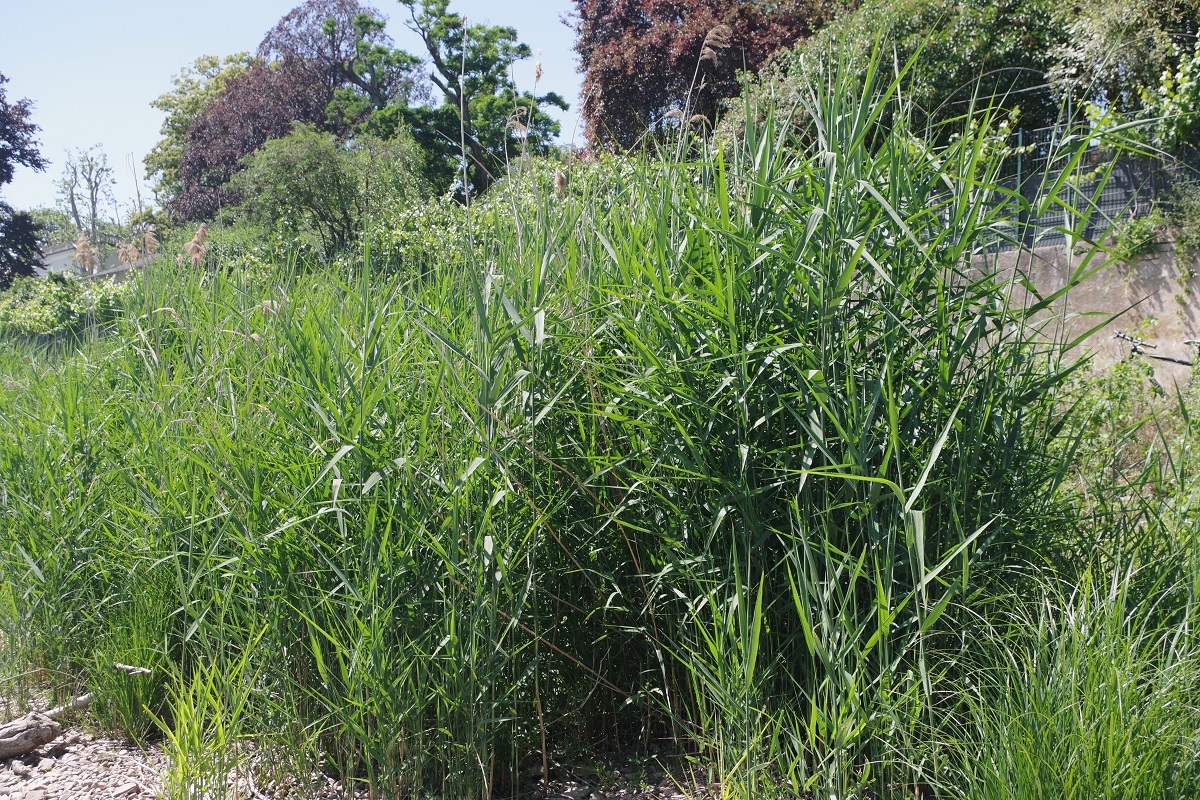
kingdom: Plantae
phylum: Tracheophyta
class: Liliopsida
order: Poales
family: Poaceae
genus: Phragmites
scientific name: Phragmites australis
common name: Common reed
